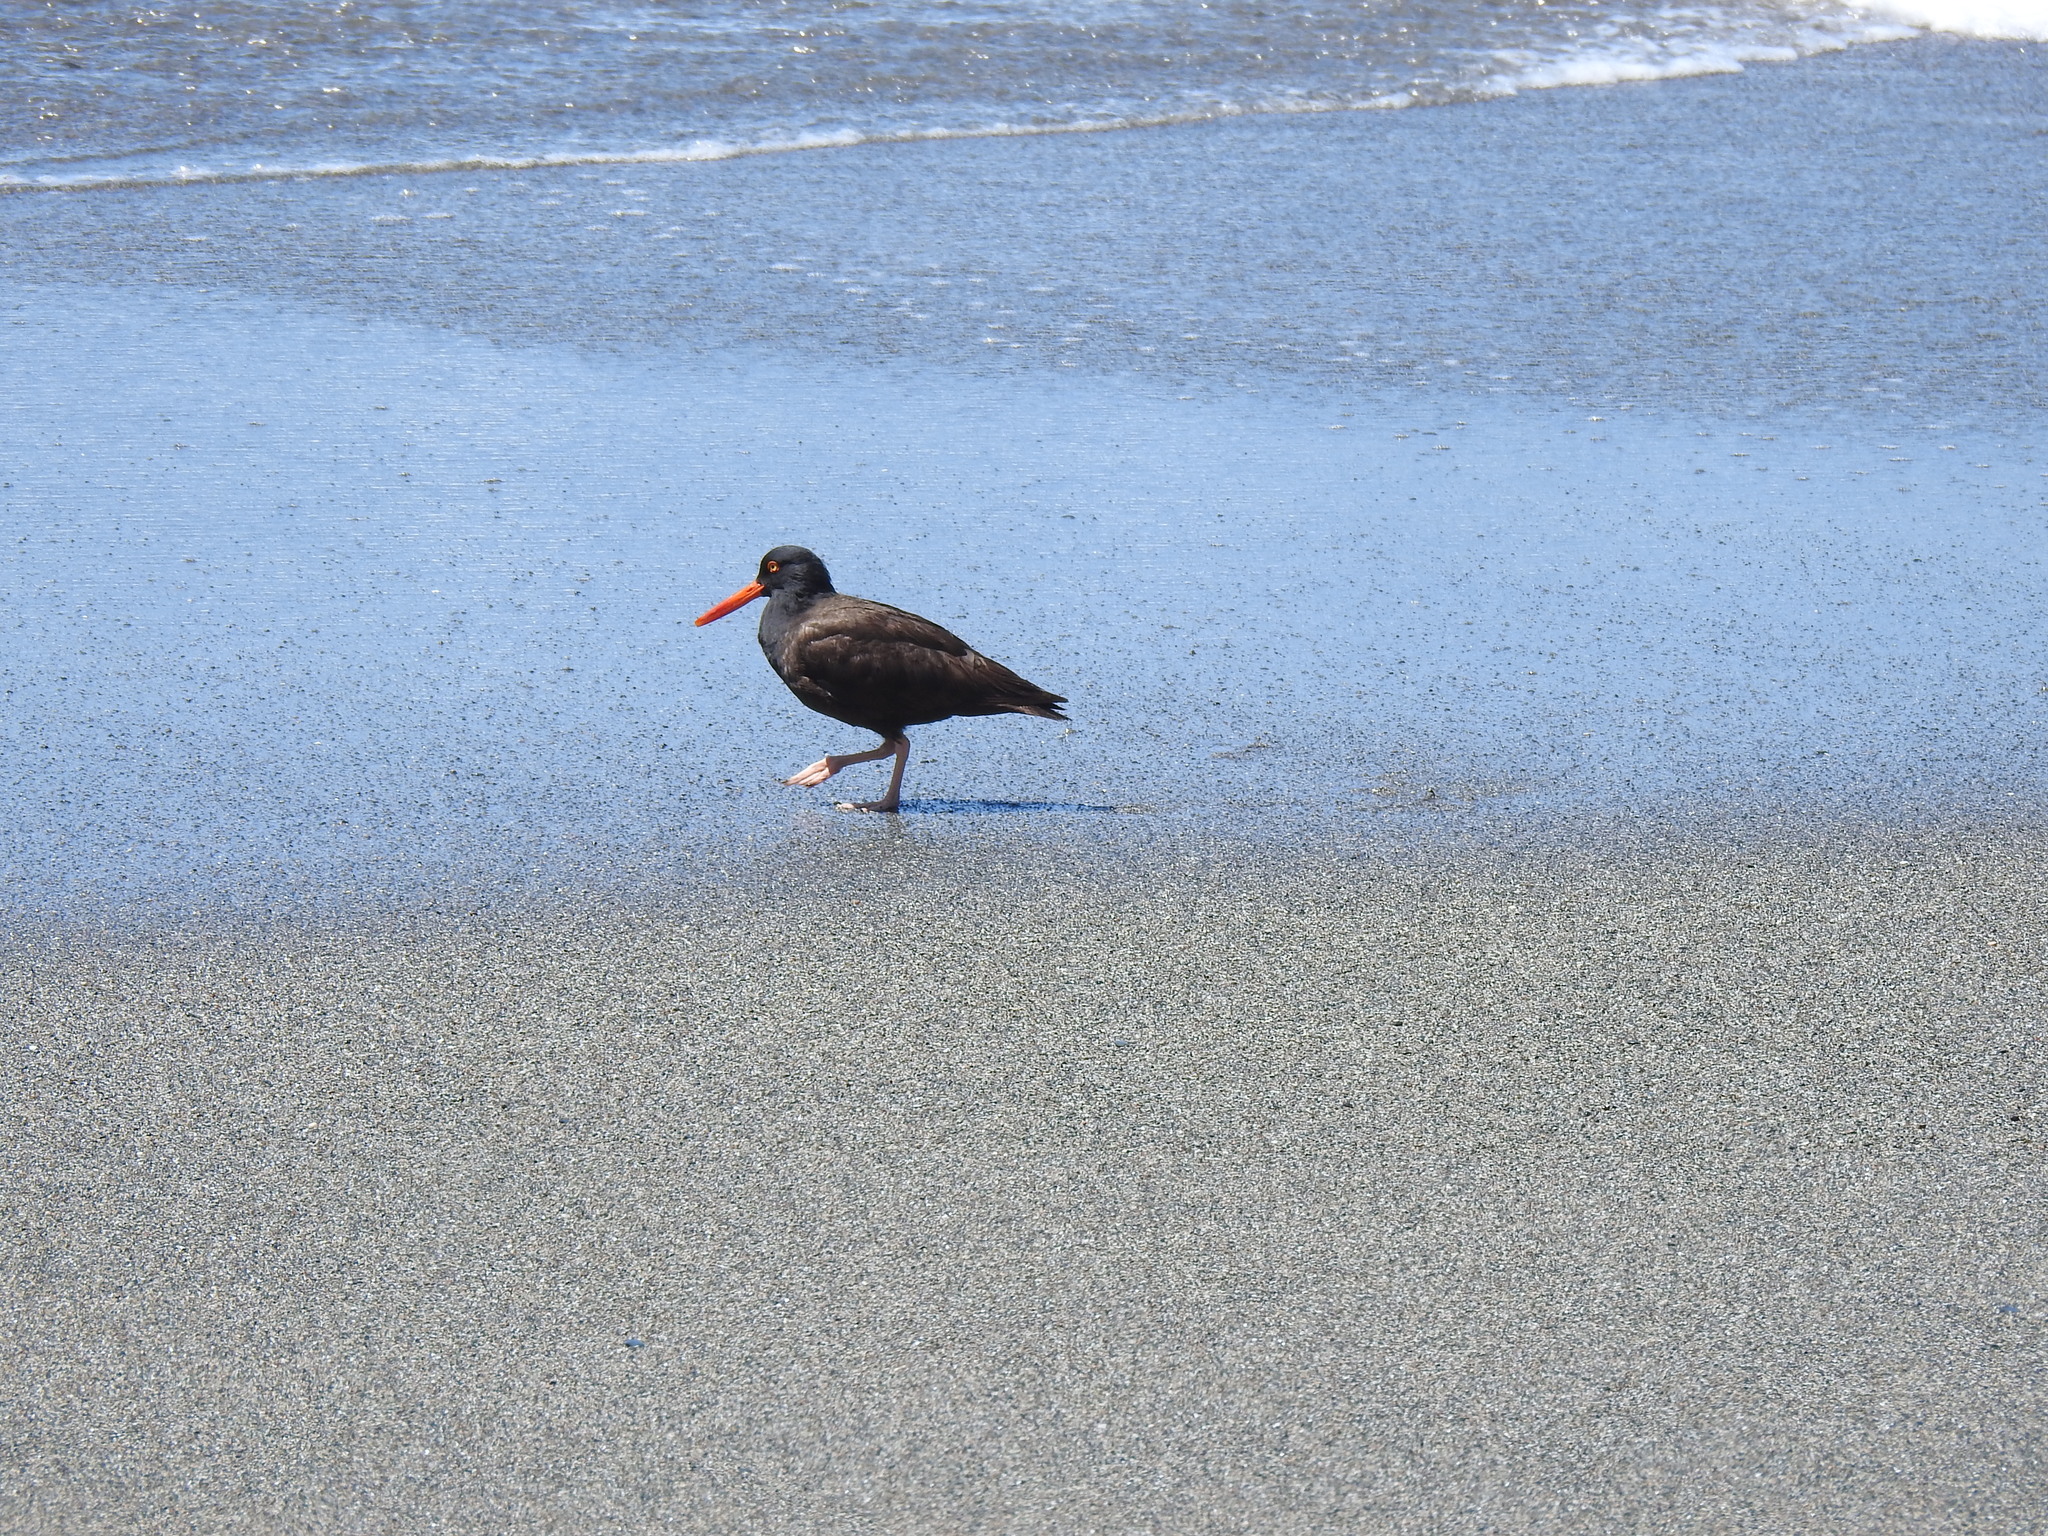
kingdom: Animalia
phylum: Chordata
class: Aves
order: Charadriiformes
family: Haematopodidae
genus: Haematopus
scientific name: Haematopus bachmani
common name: Black oystercatcher
